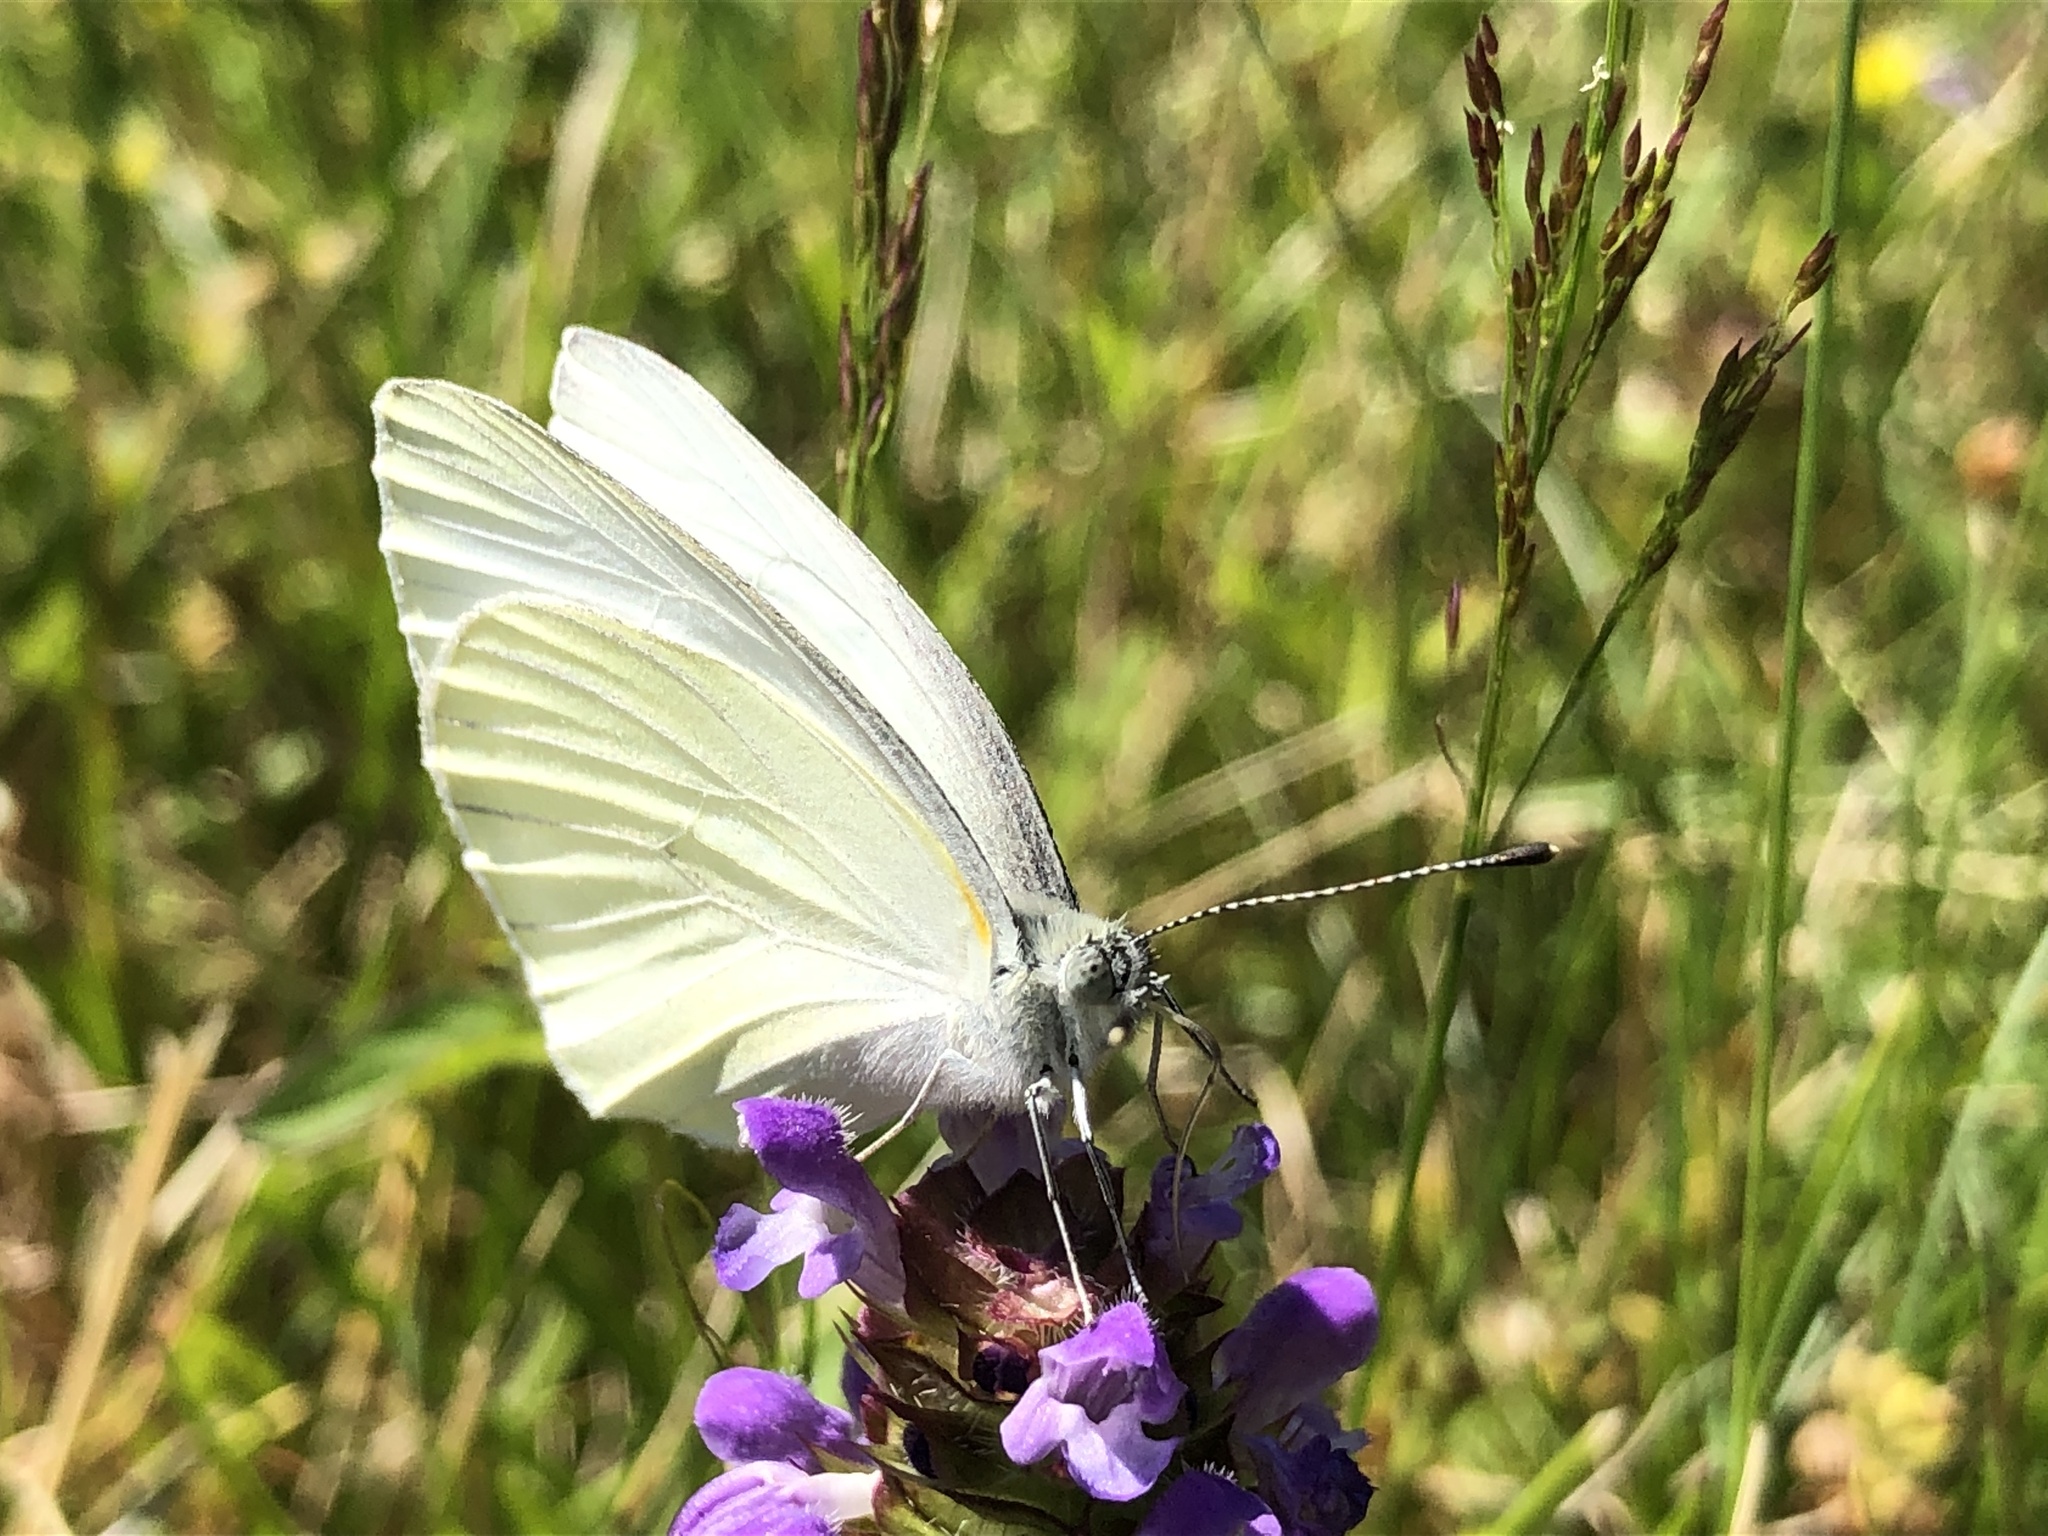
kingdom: Animalia
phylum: Arthropoda
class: Insecta
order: Lepidoptera
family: Pieridae
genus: Pieris
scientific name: Pieris oleracea
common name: Mustard white
